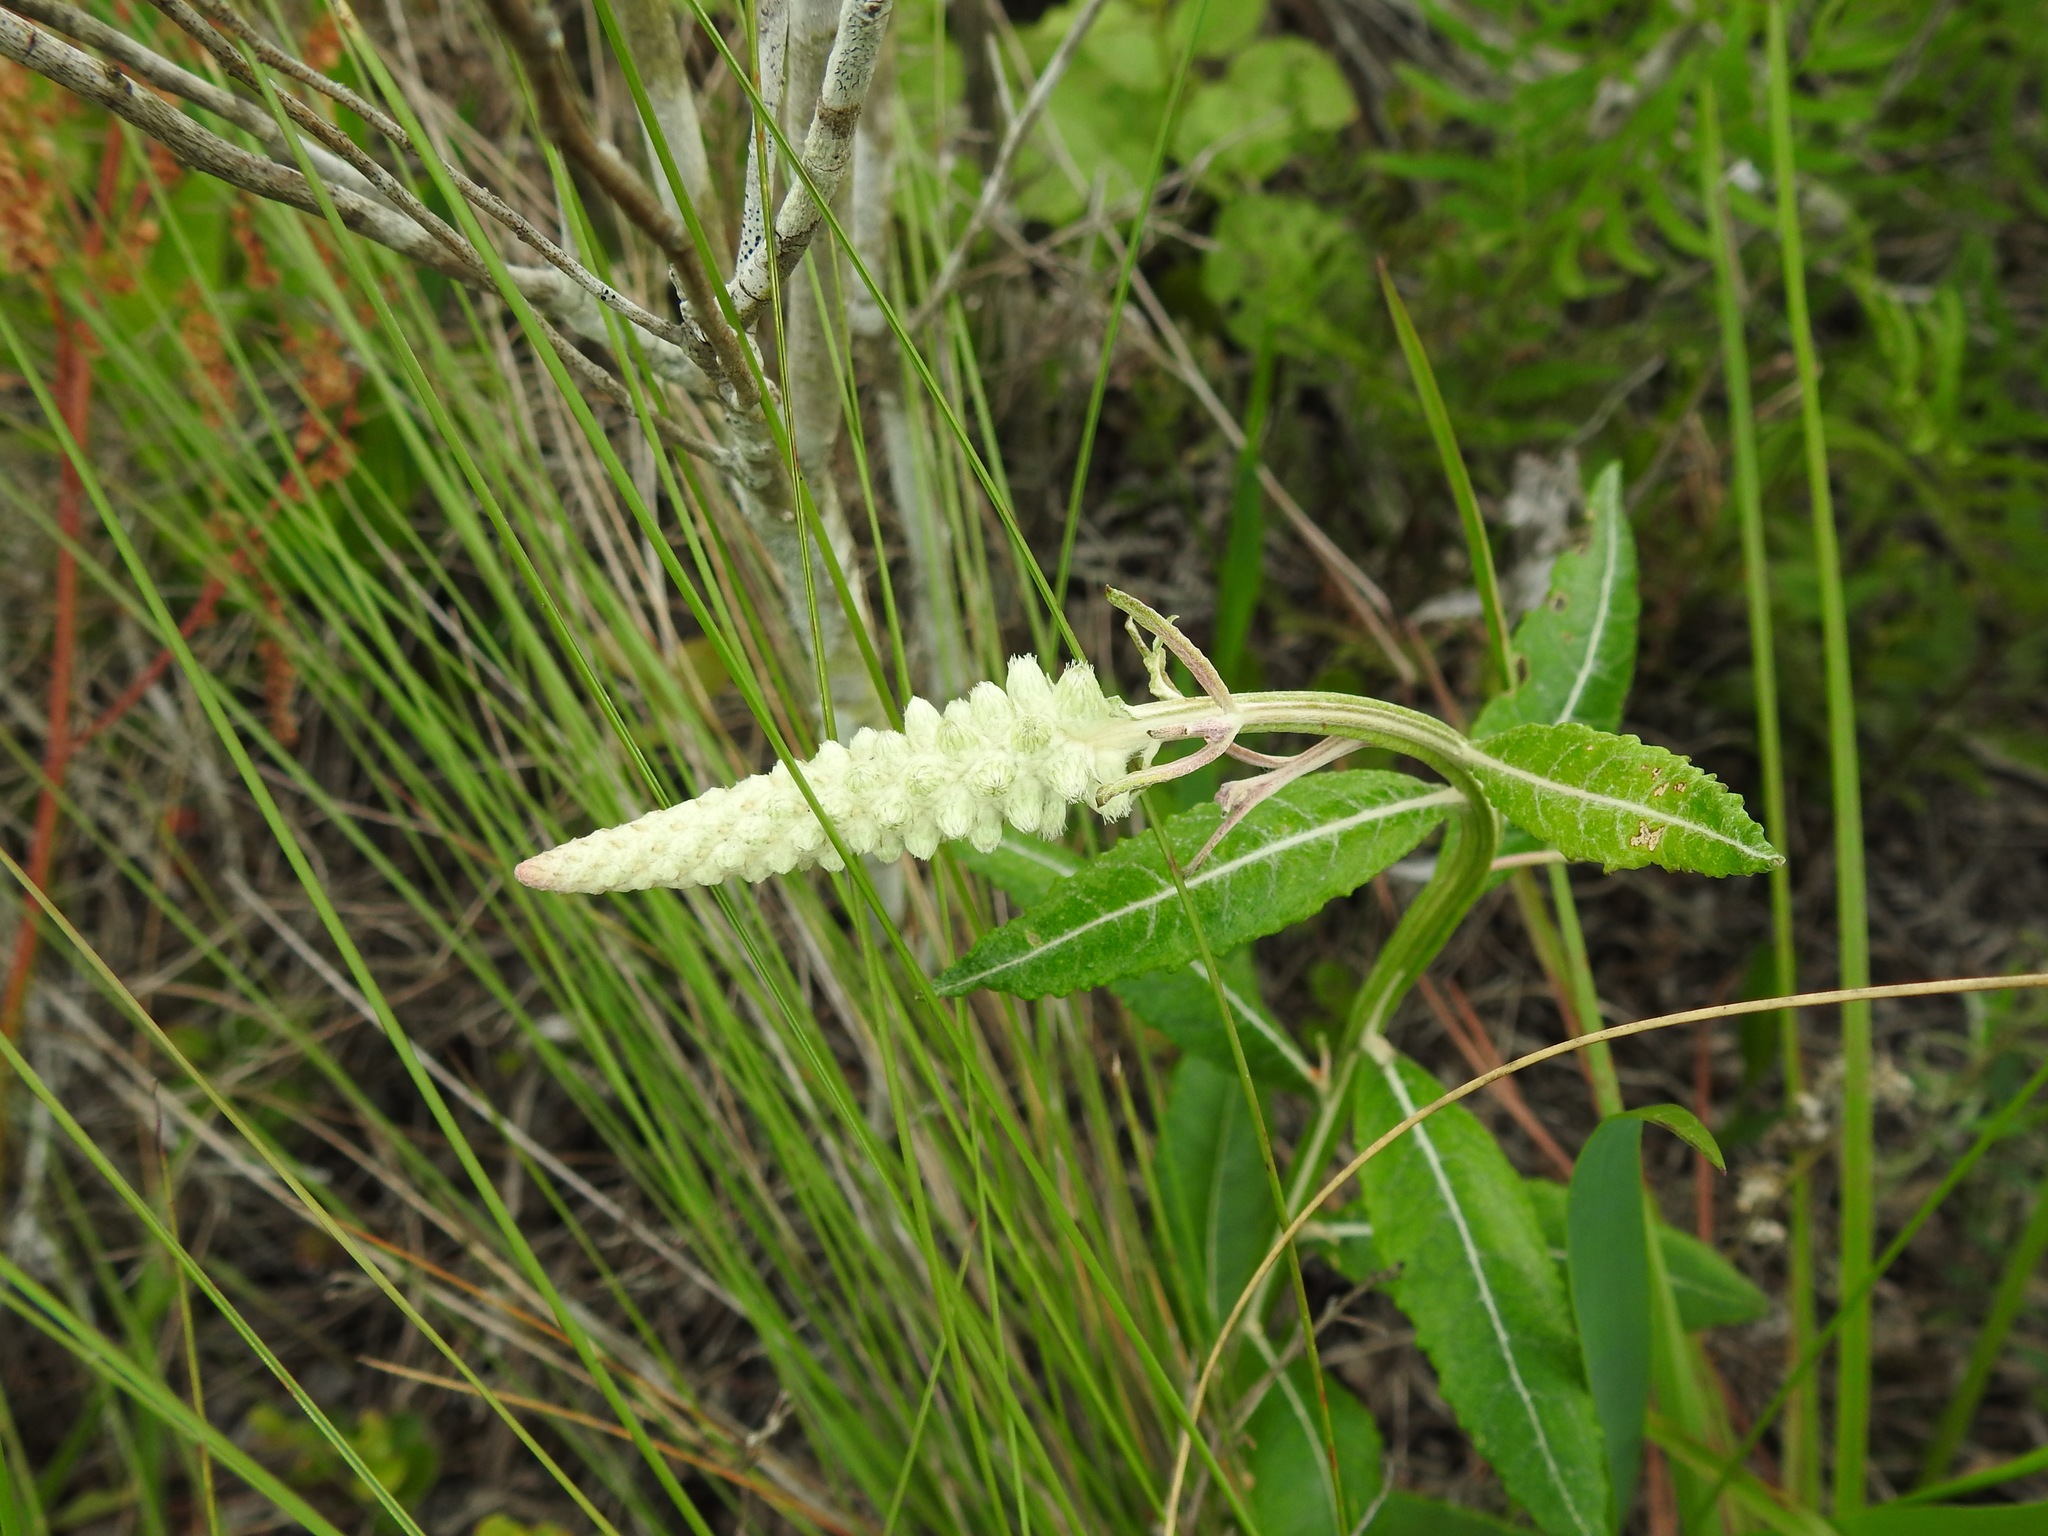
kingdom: Plantae
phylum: Tracheophyta
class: Magnoliopsida
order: Asterales
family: Asteraceae
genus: Pterocaulon
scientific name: Pterocaulon pycnostachyum
